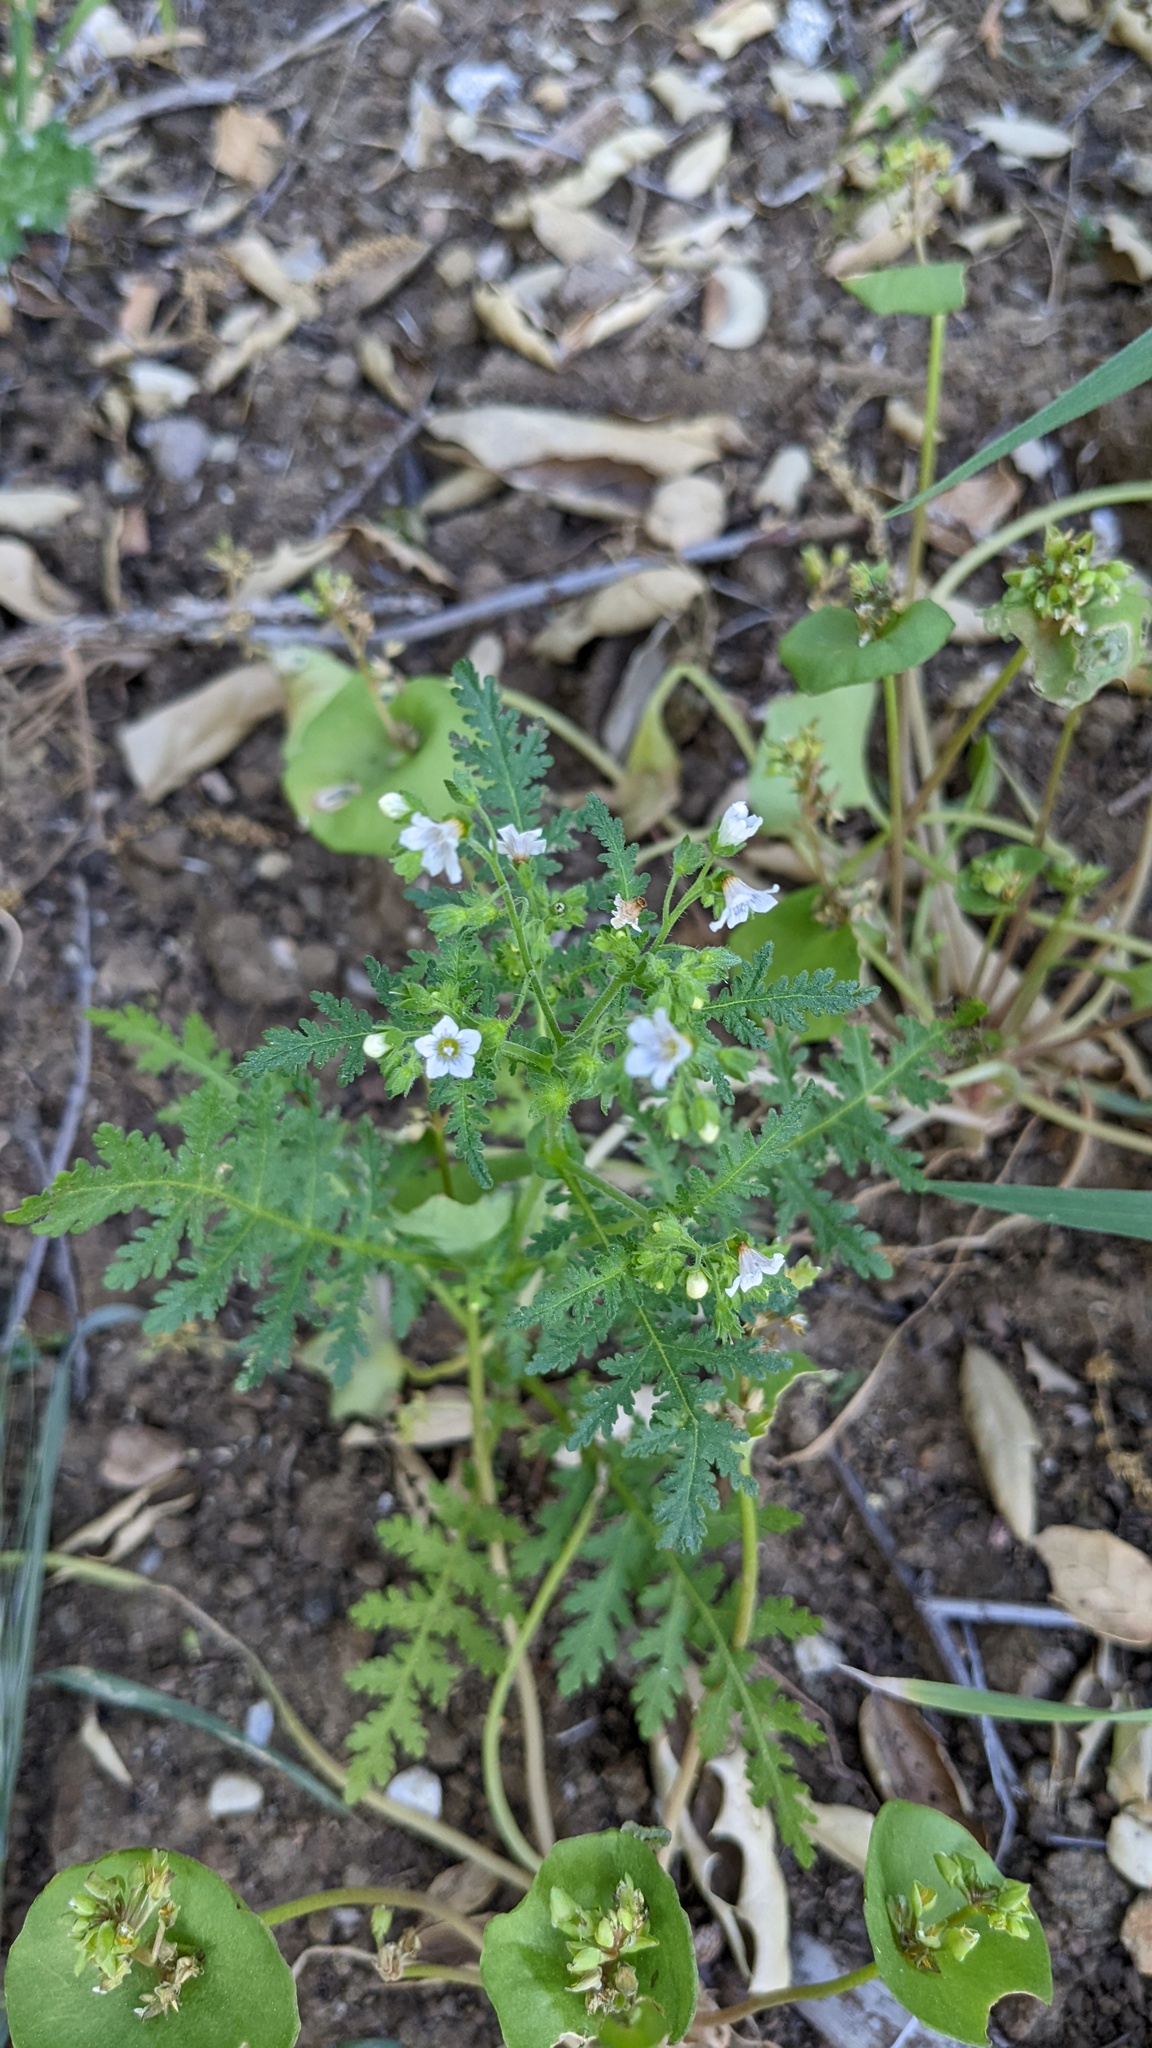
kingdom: Plantae
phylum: Tracheophyta
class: Magnoliopsida
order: Boraginales
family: Hydrophyllaceae
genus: Eucrypta
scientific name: Eucrypta chrysanthemifolia
